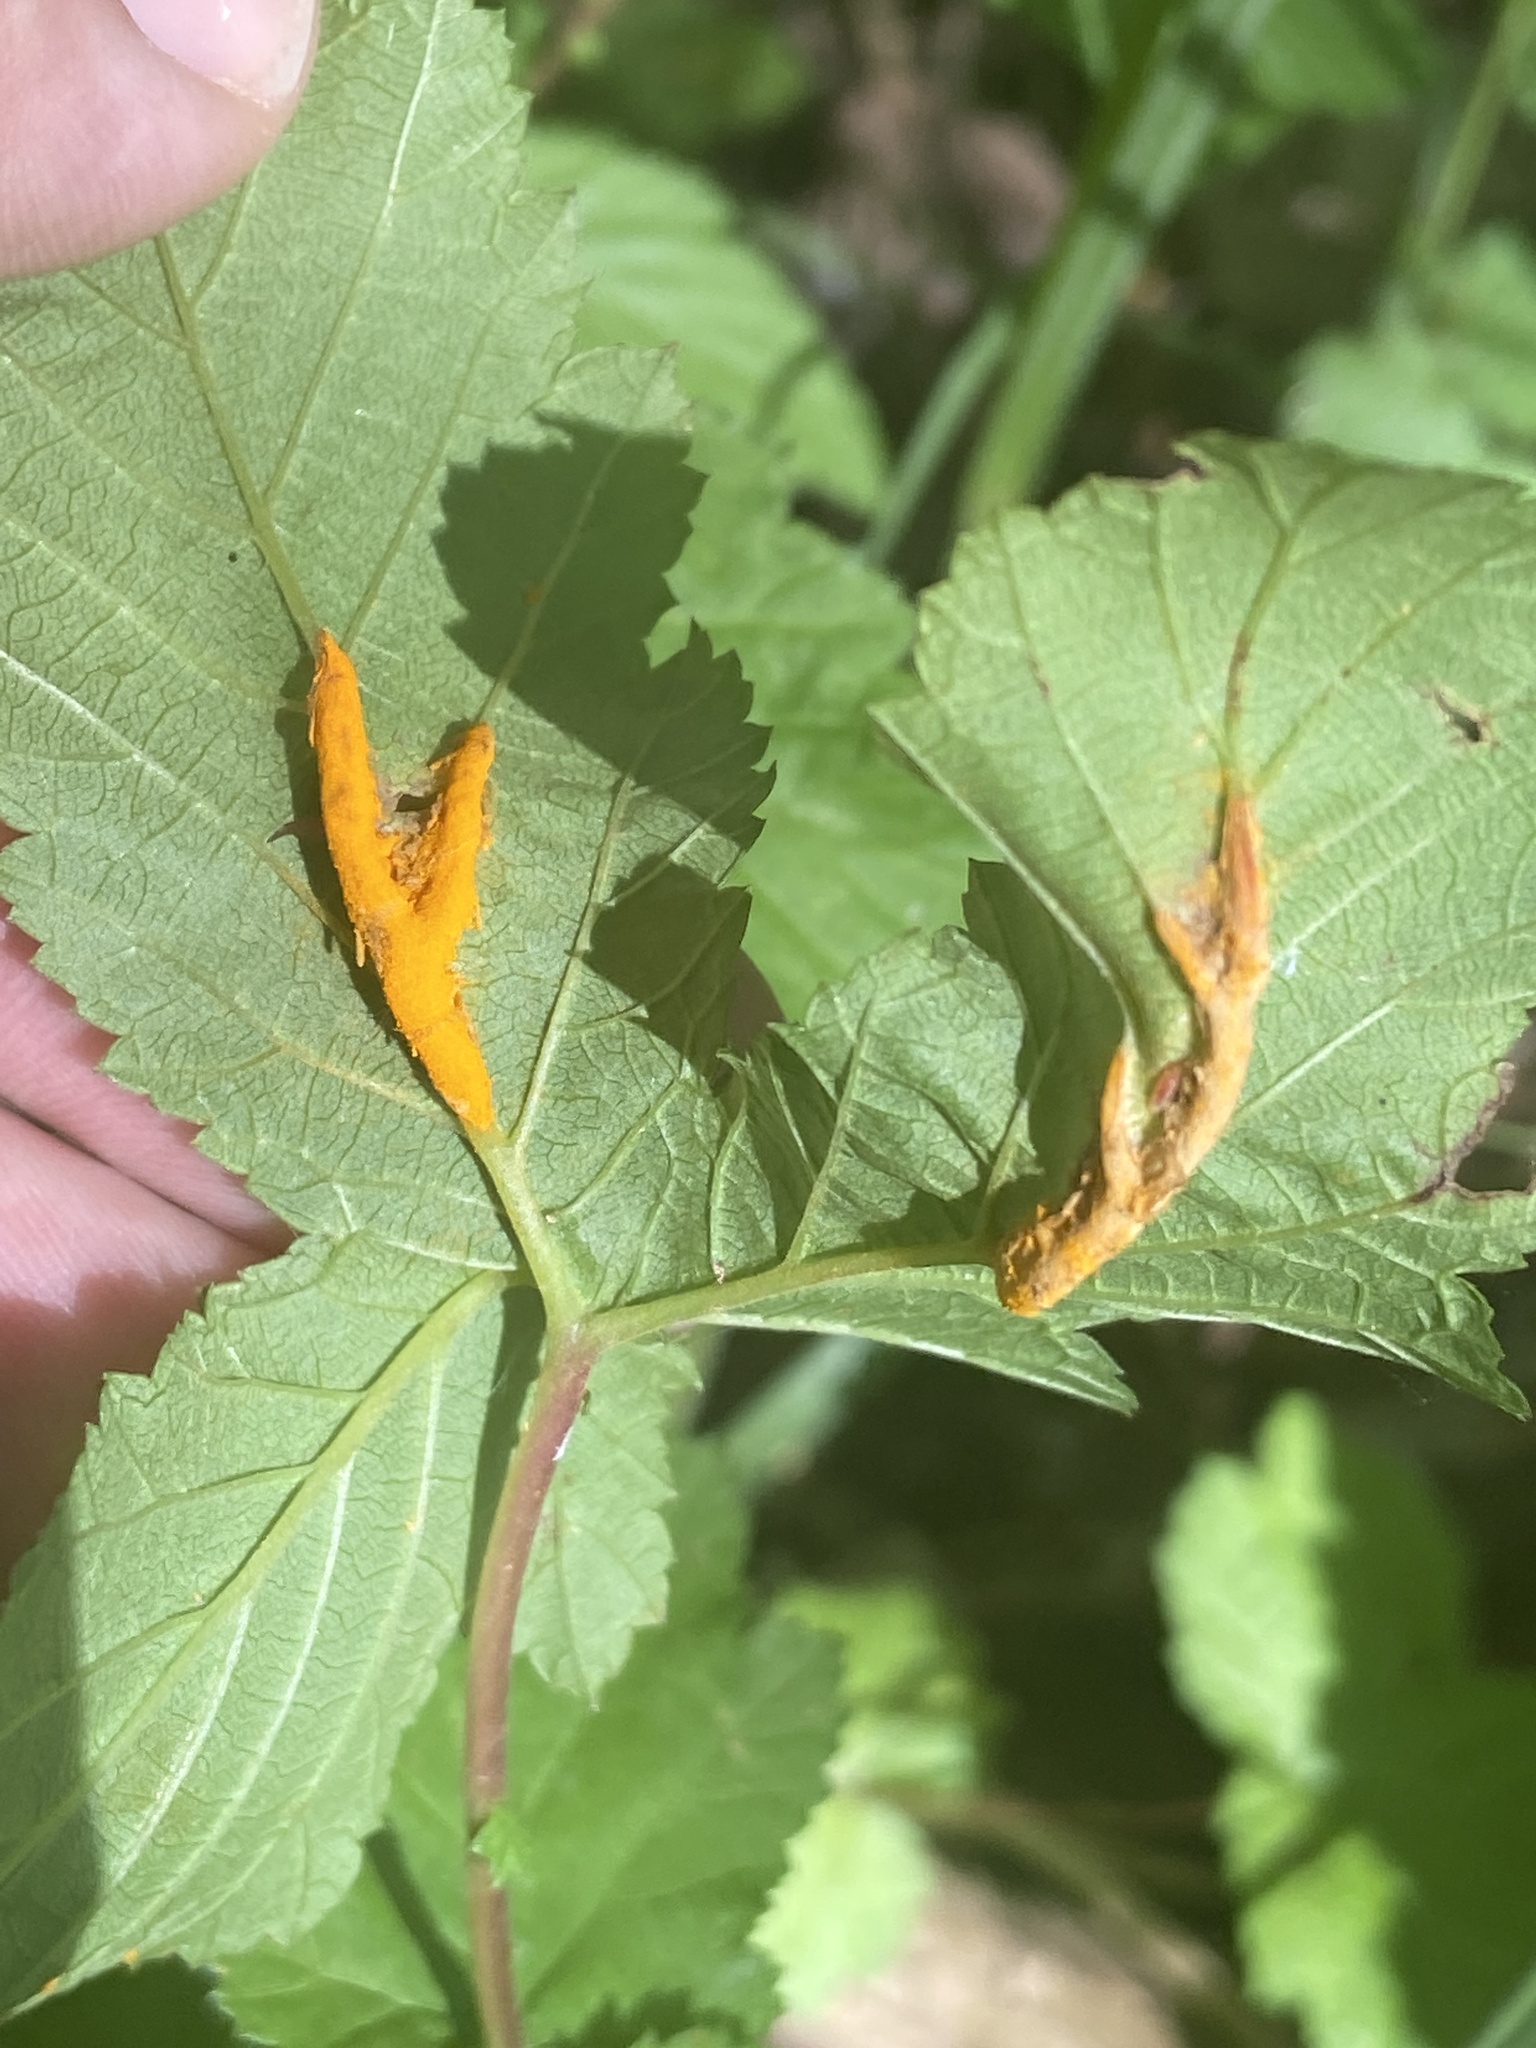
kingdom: Fungi
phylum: Basidiomycota
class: Pucciniomycetes
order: Pucciniales
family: Raveneliaceae
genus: Triphragmium
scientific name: Triphragmium ulmariae
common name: Meadowsweet rust
